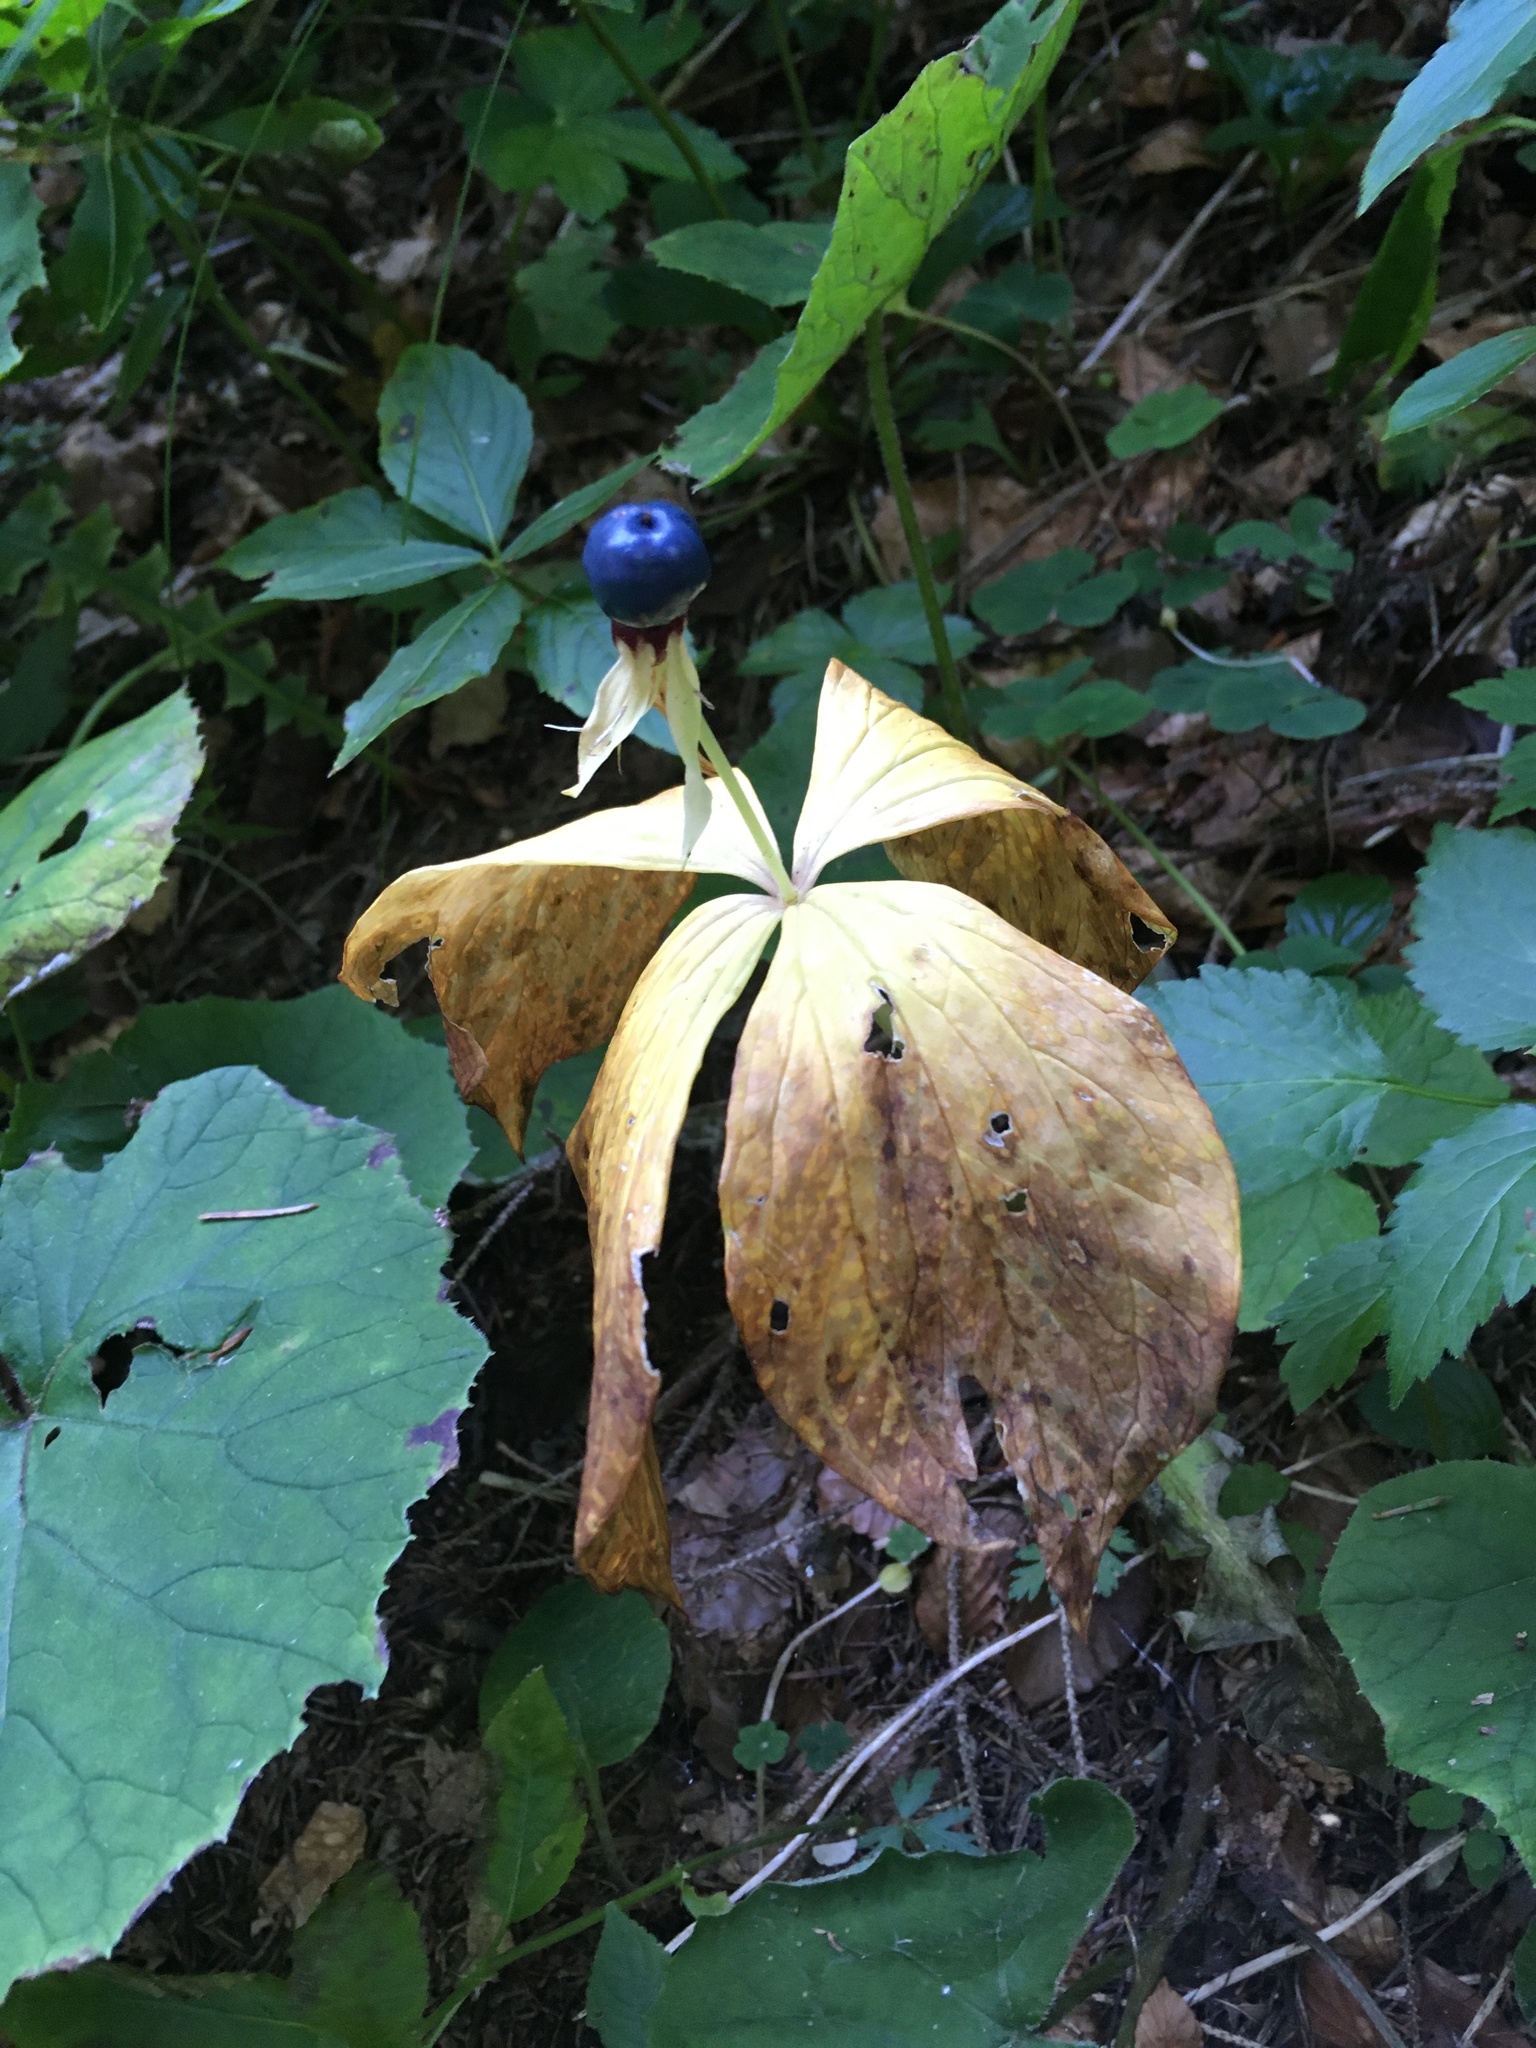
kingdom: Plantae
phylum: Tracheophyta
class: Liliopsida
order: Liliales
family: Melanthiaceae
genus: Paris
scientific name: Paris quadrifolia
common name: Herb-paris
